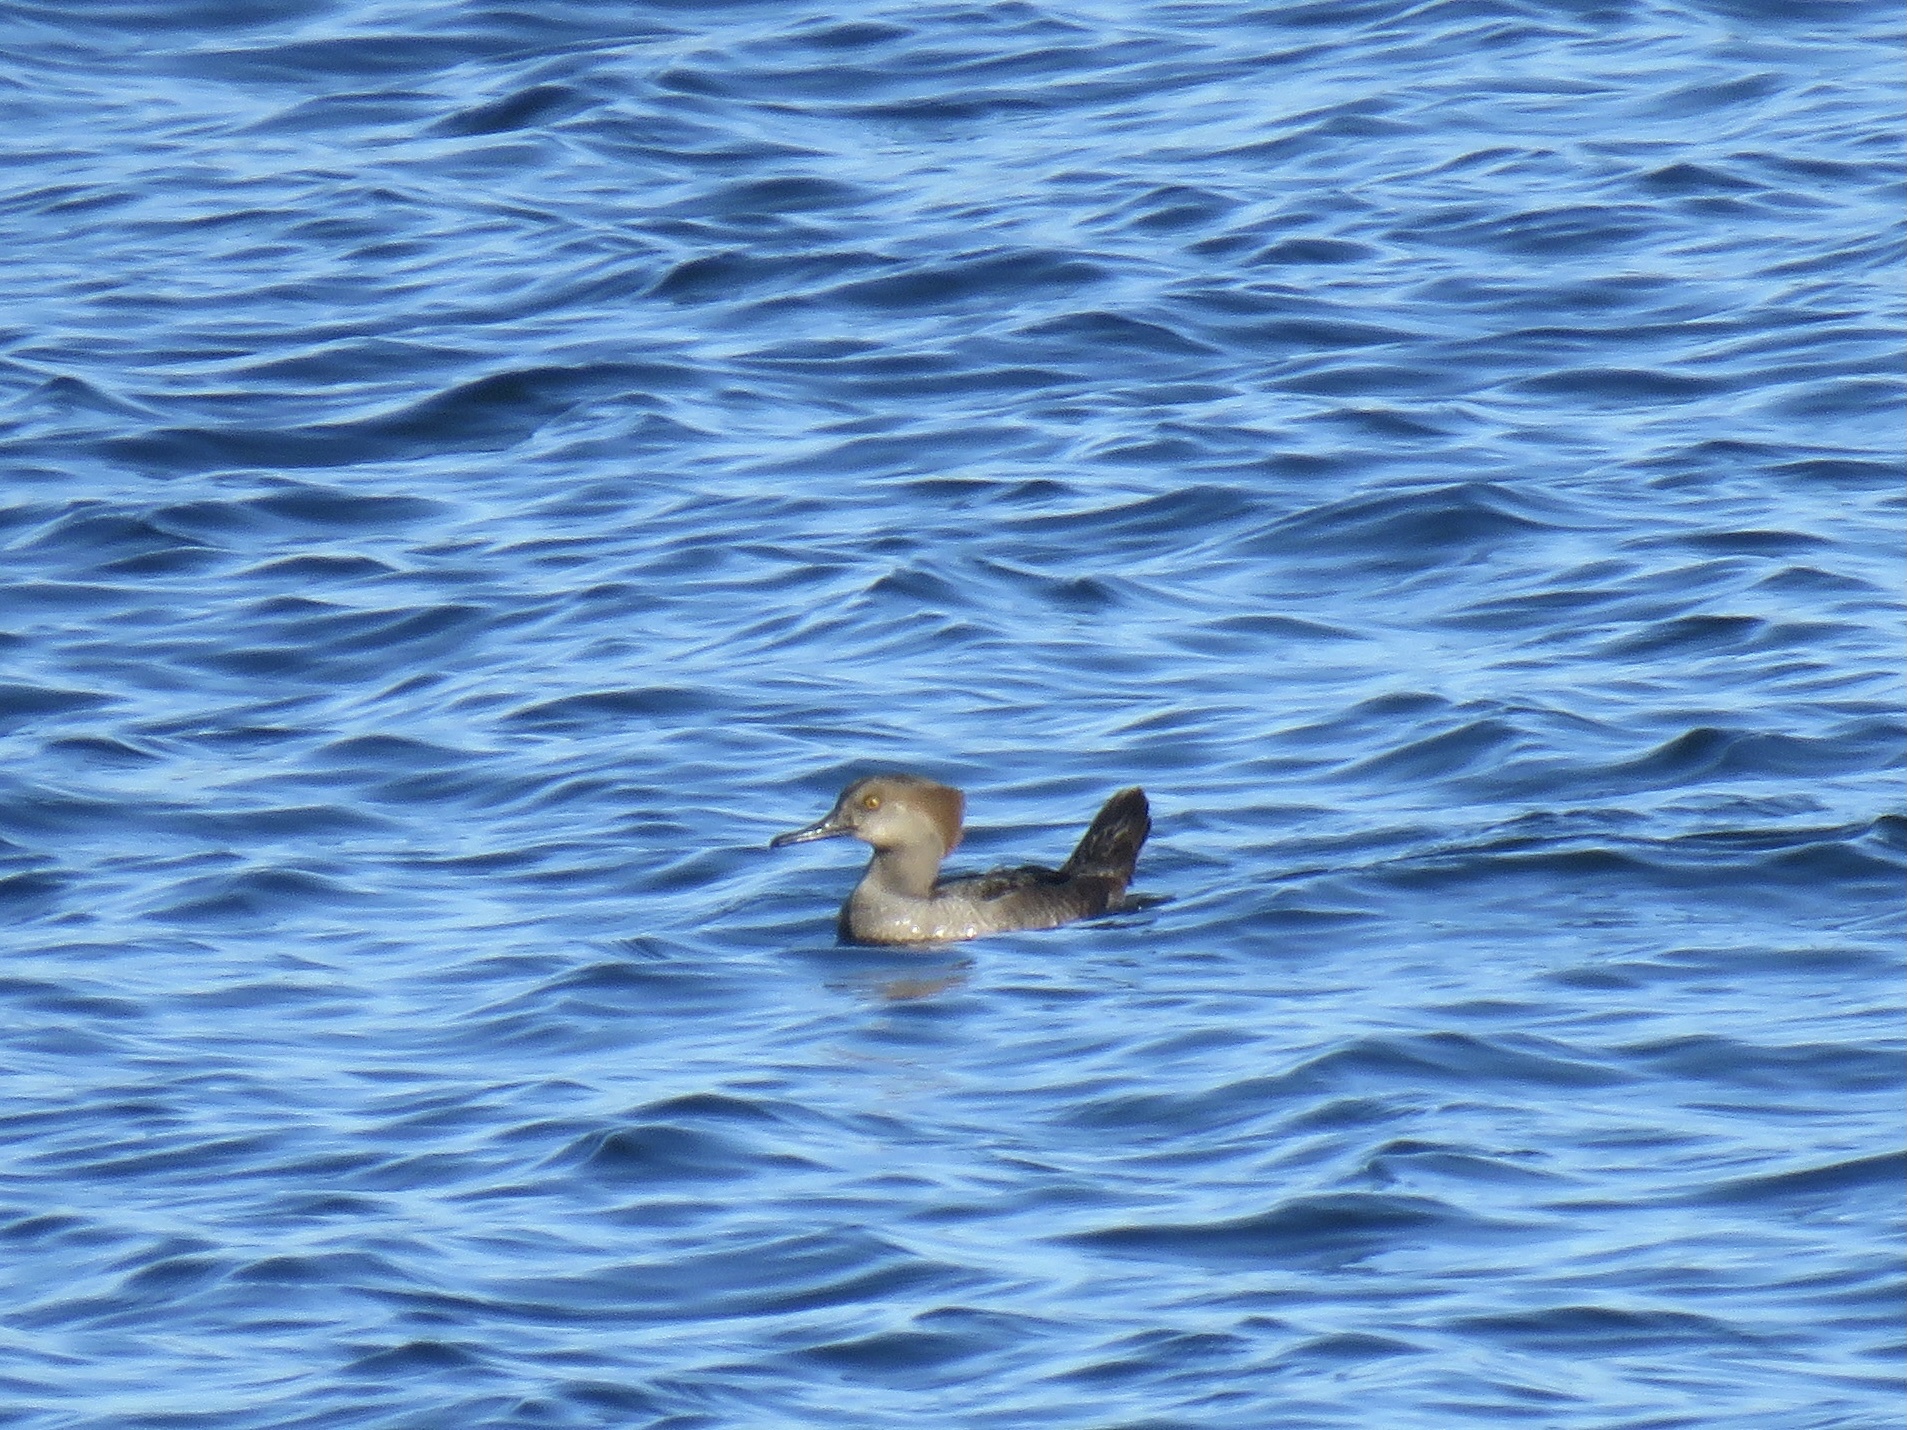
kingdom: Animalia
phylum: Chordata
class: Aves
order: Anseriformes
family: Anatidae
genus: Lophodytes
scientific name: Lophodytes cucullatus
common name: Hooded merganser
